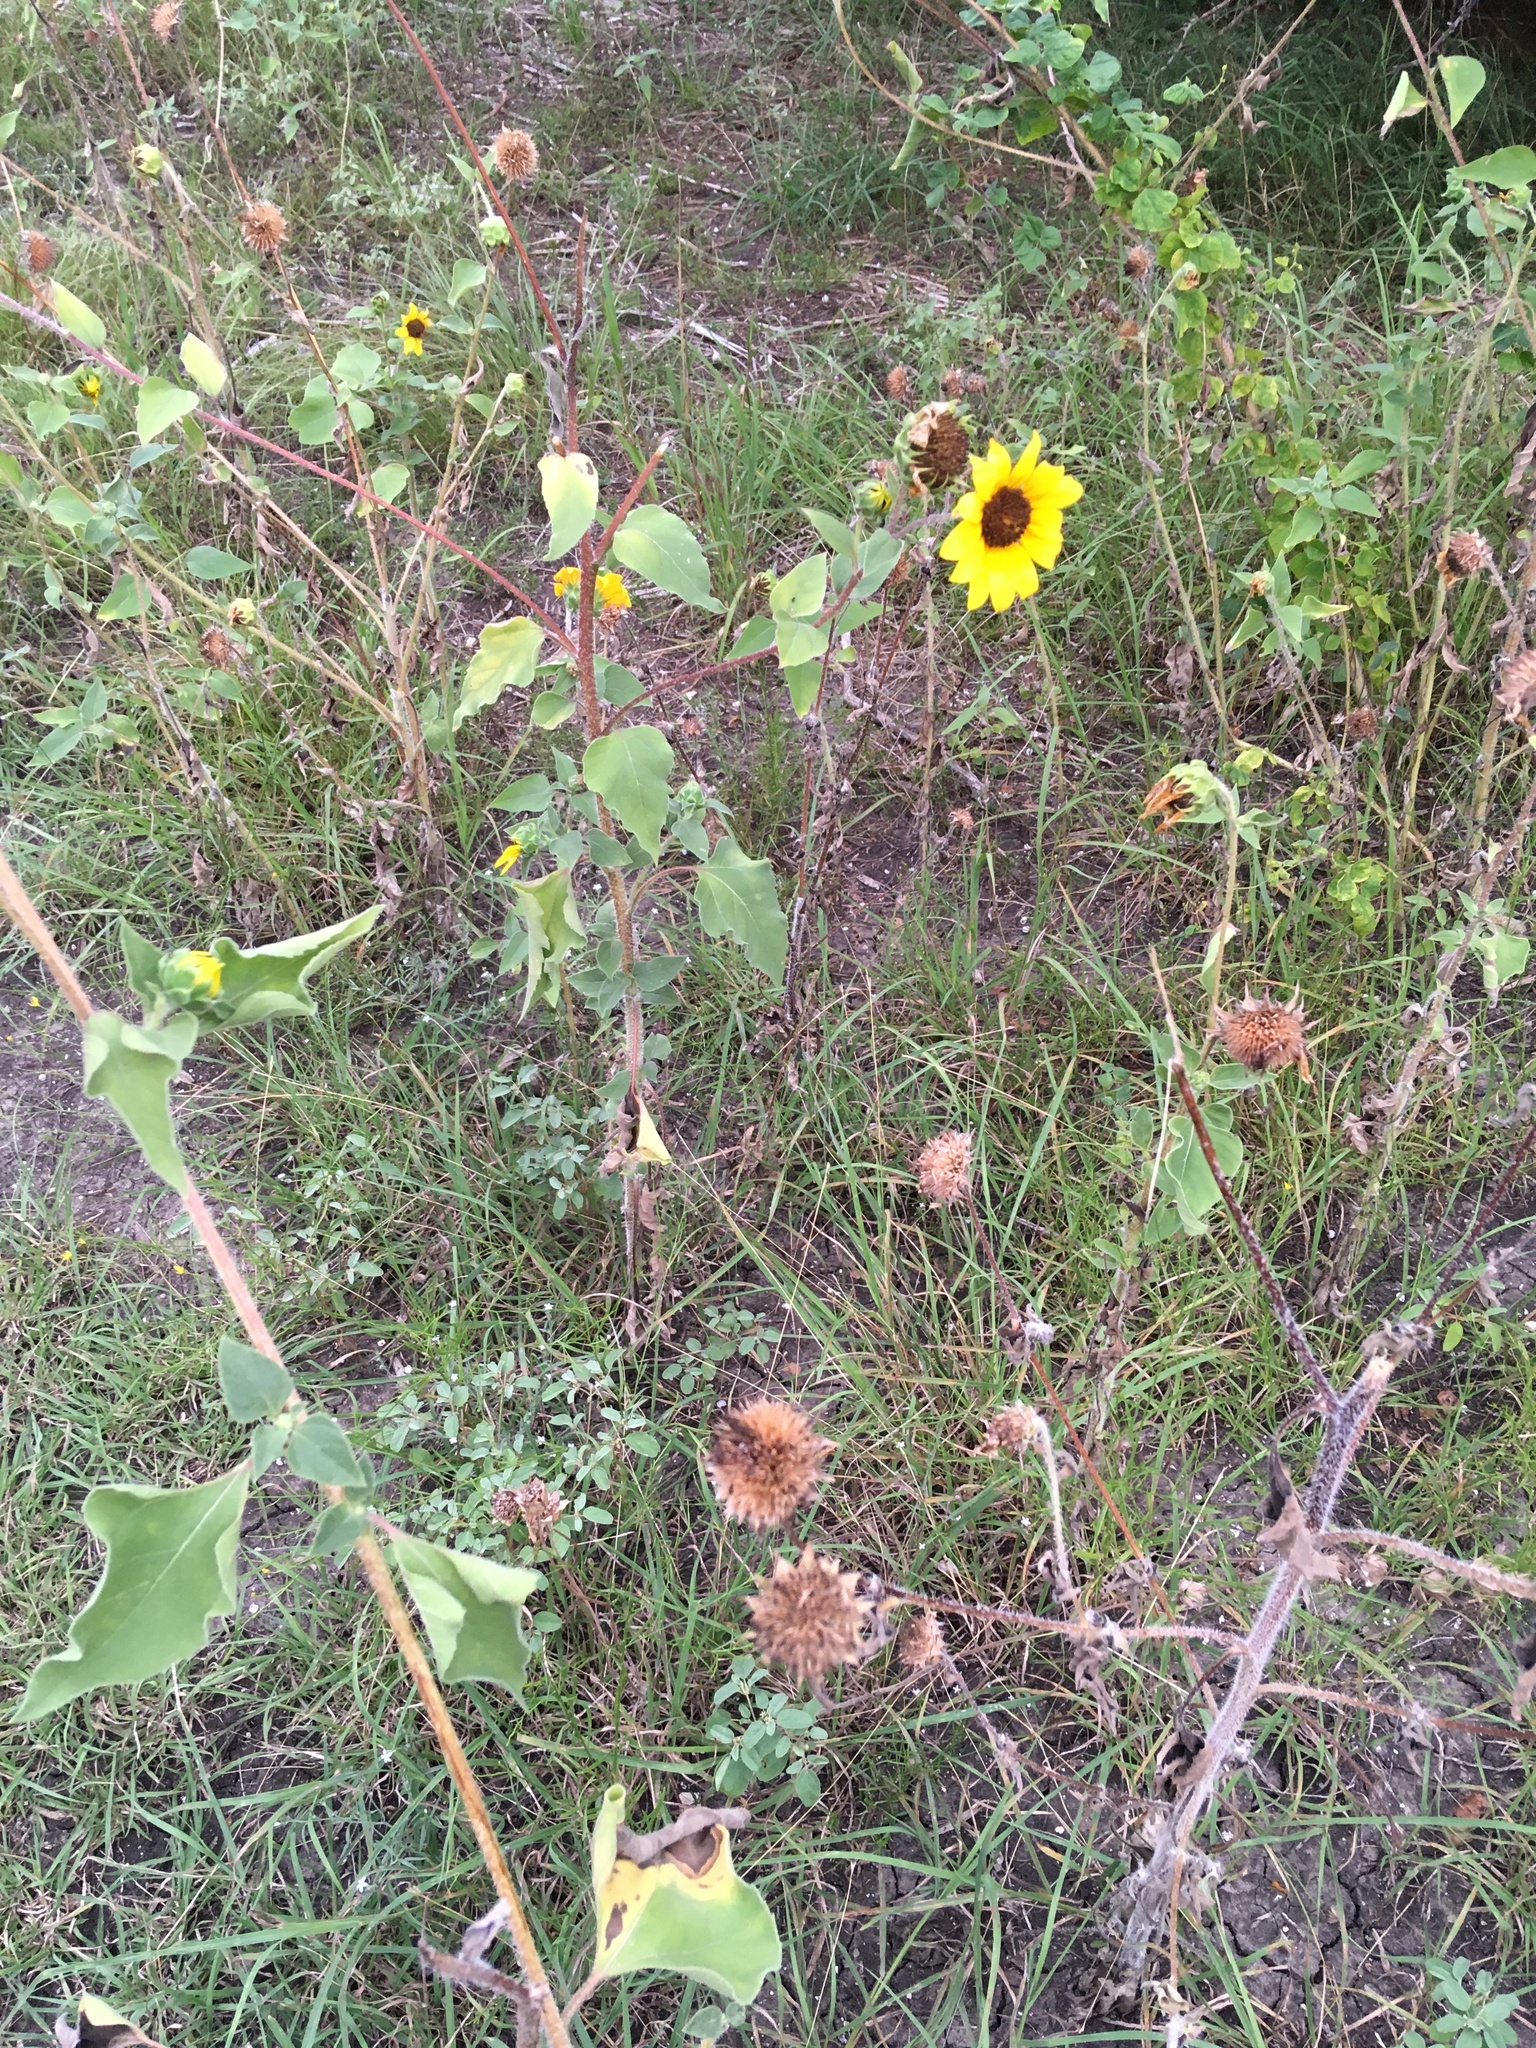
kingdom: Plantae
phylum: Tracheophyta
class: Magnoliopsida
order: Asterales
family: Asteraceae
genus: Helianthus
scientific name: Helianthus annuus
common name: Sunflower
